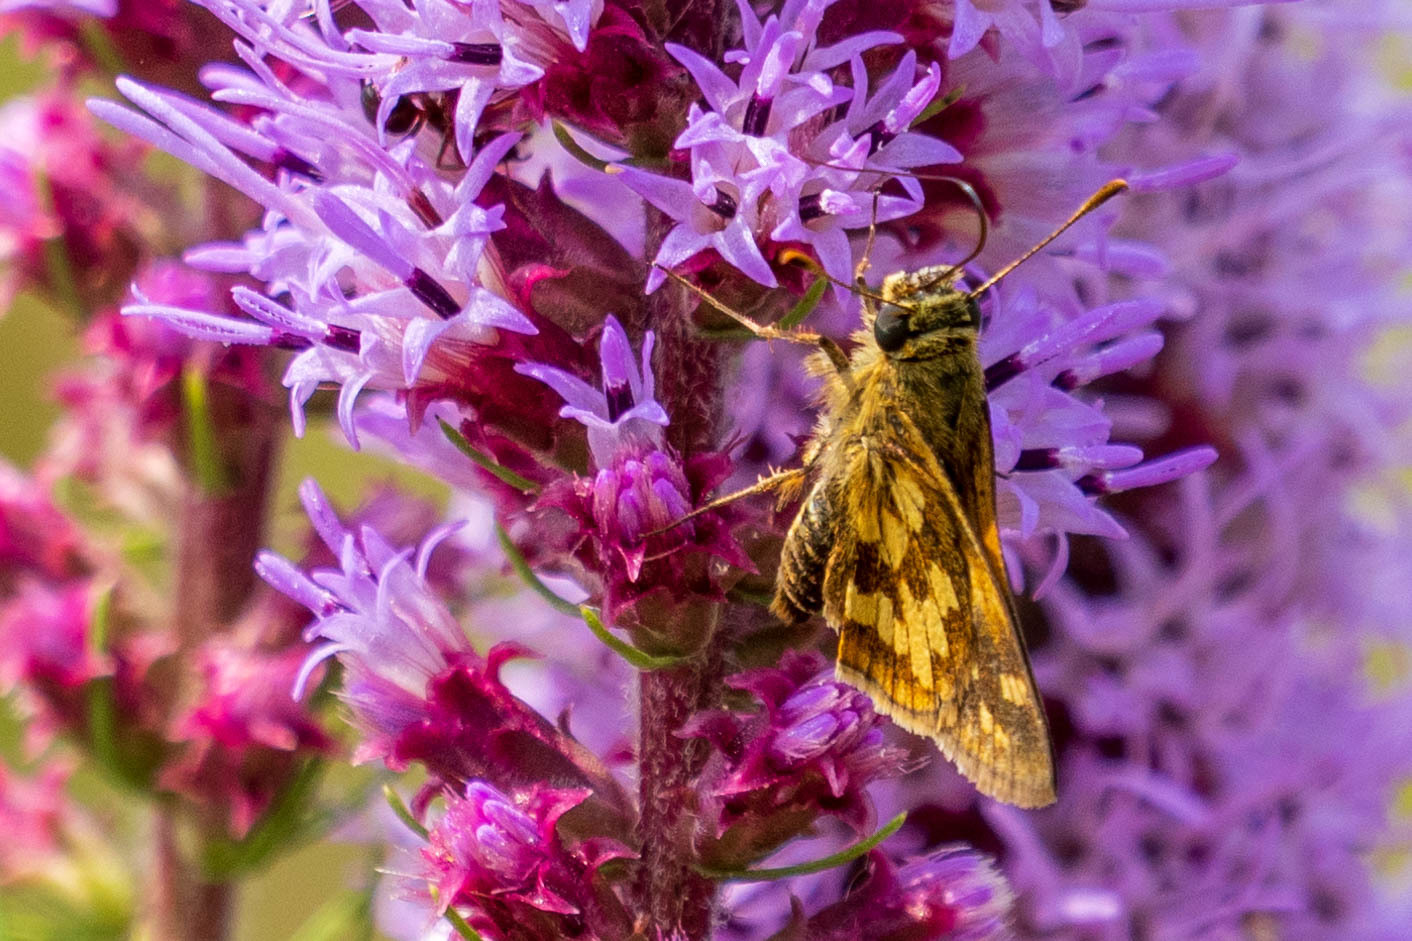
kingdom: Animalia
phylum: Arthropoda
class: Insecta
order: Lepidoptera
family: Hesperiidae
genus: Polites
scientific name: Polites coras
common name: Peck's skipper
